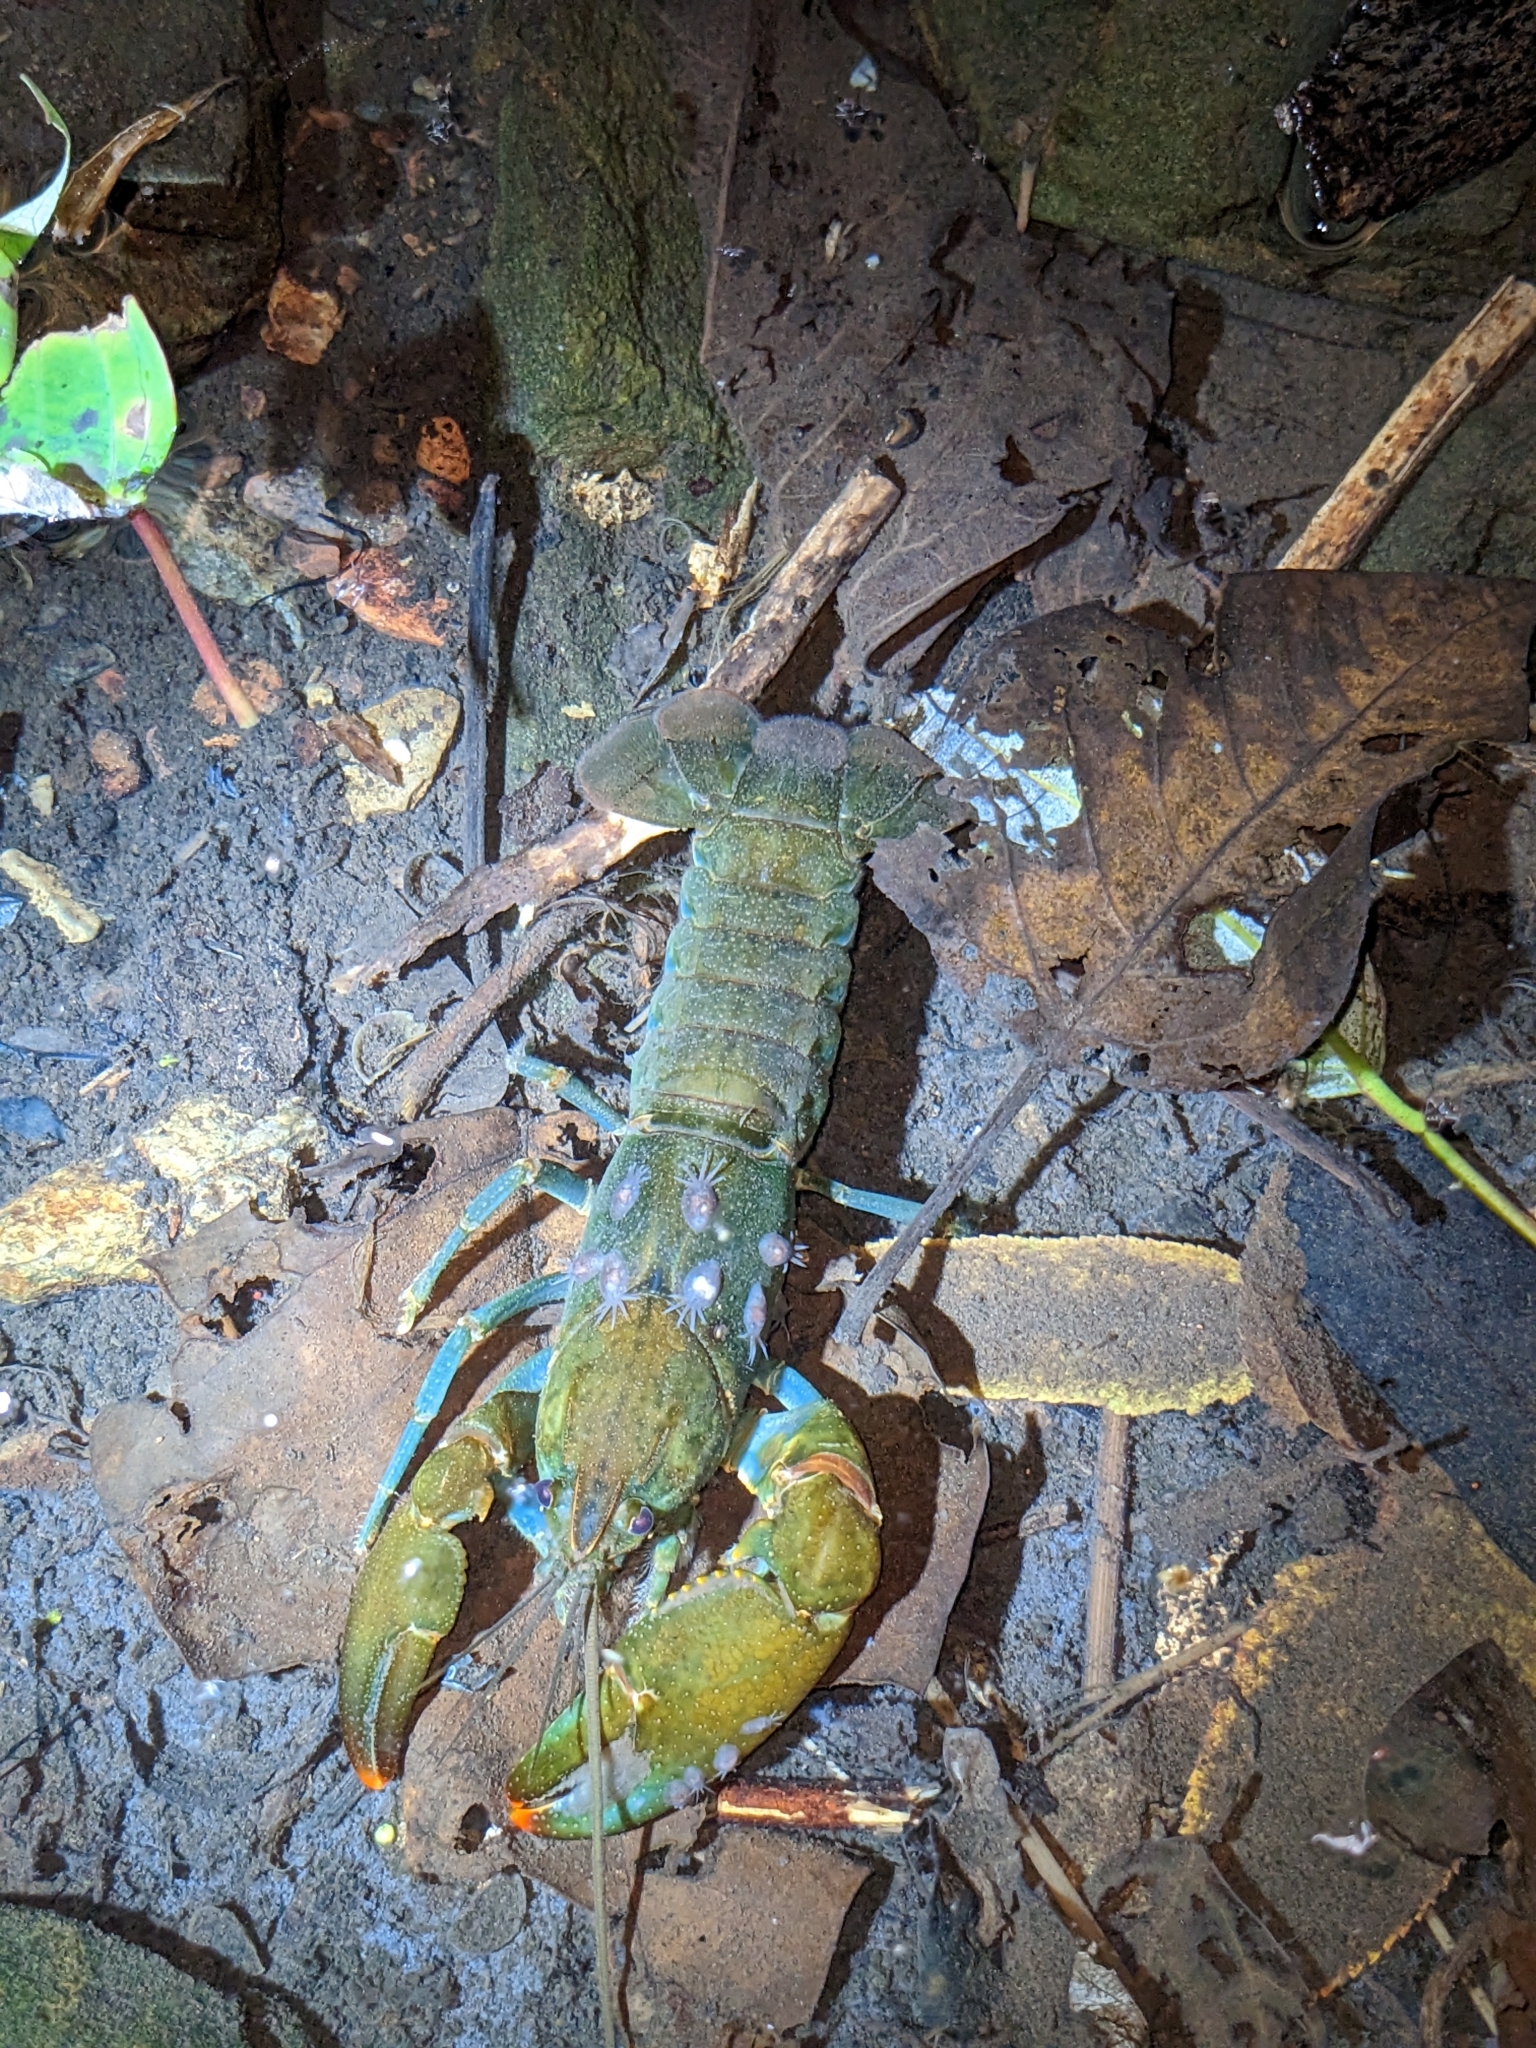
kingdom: Animalia
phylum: Arthropoda
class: Malacostraca
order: Decapoda
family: Parastacidae
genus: Cherax
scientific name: Cherax depressus
